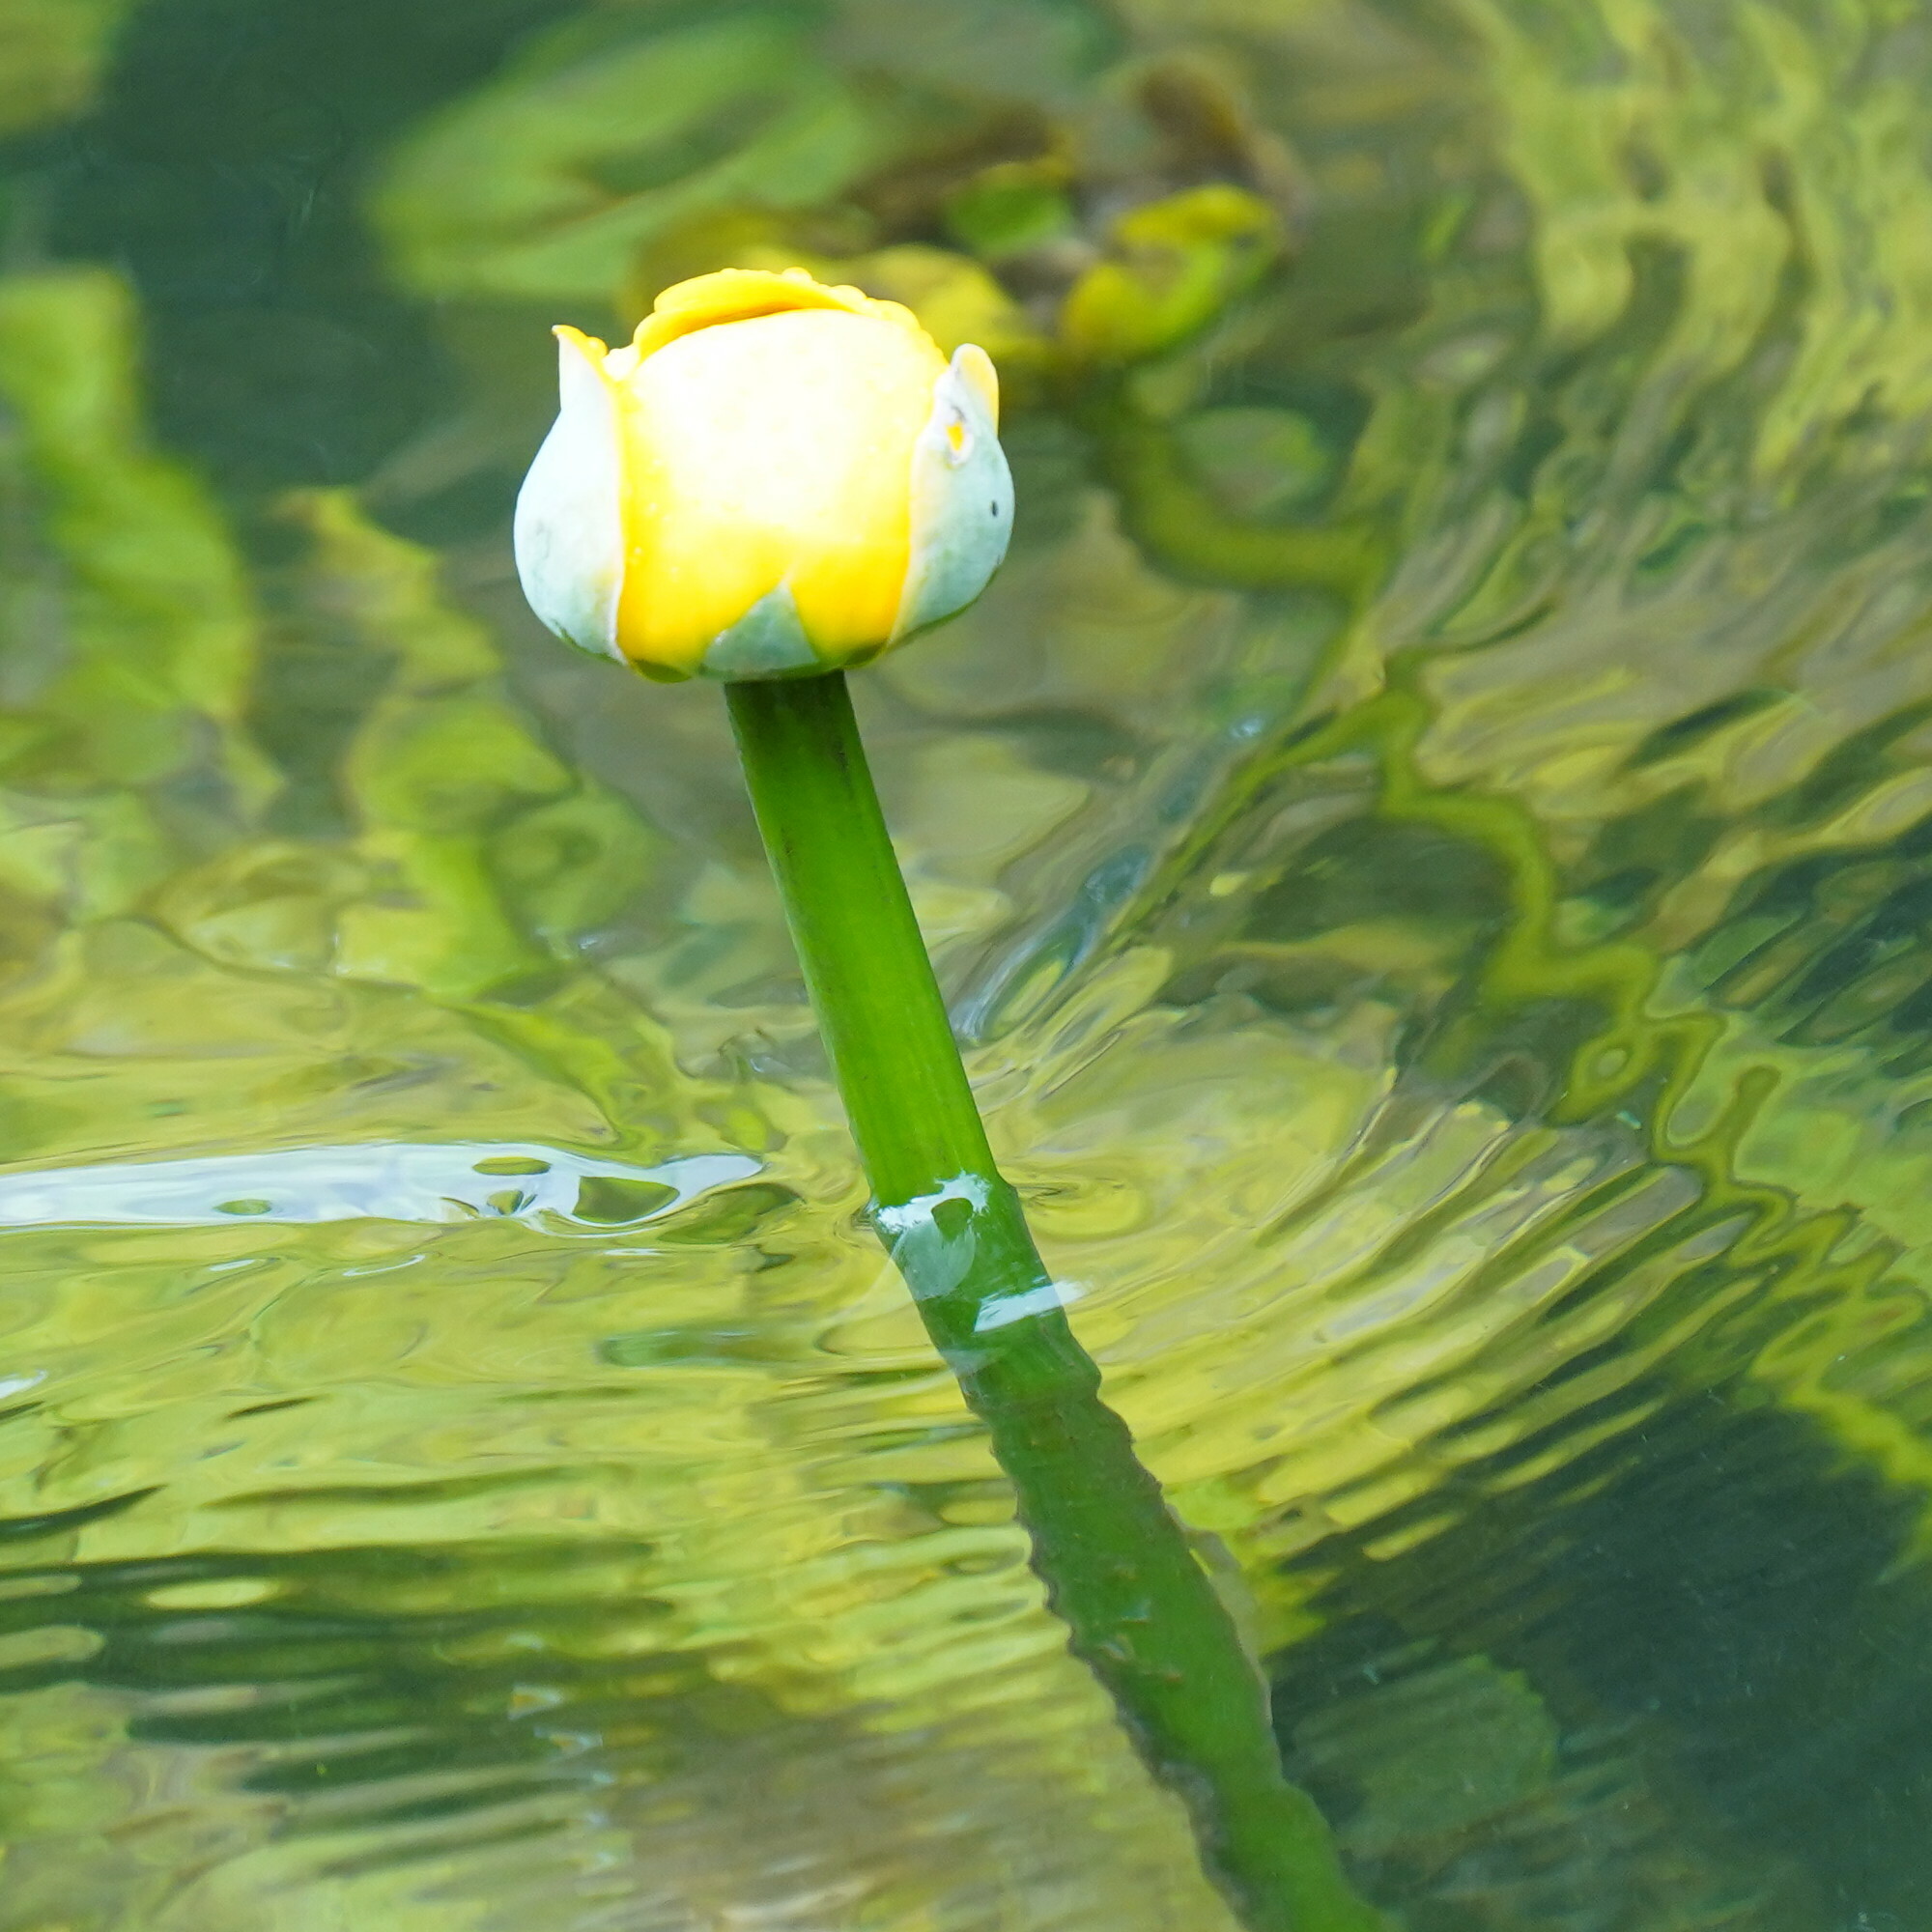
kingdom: Plantae
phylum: Tracheophyta
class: Magnoliopsida
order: Nymphaeales
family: Nymphaeaceae
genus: Nuphar
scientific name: Nuphar lutea
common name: Yellow water-lily
